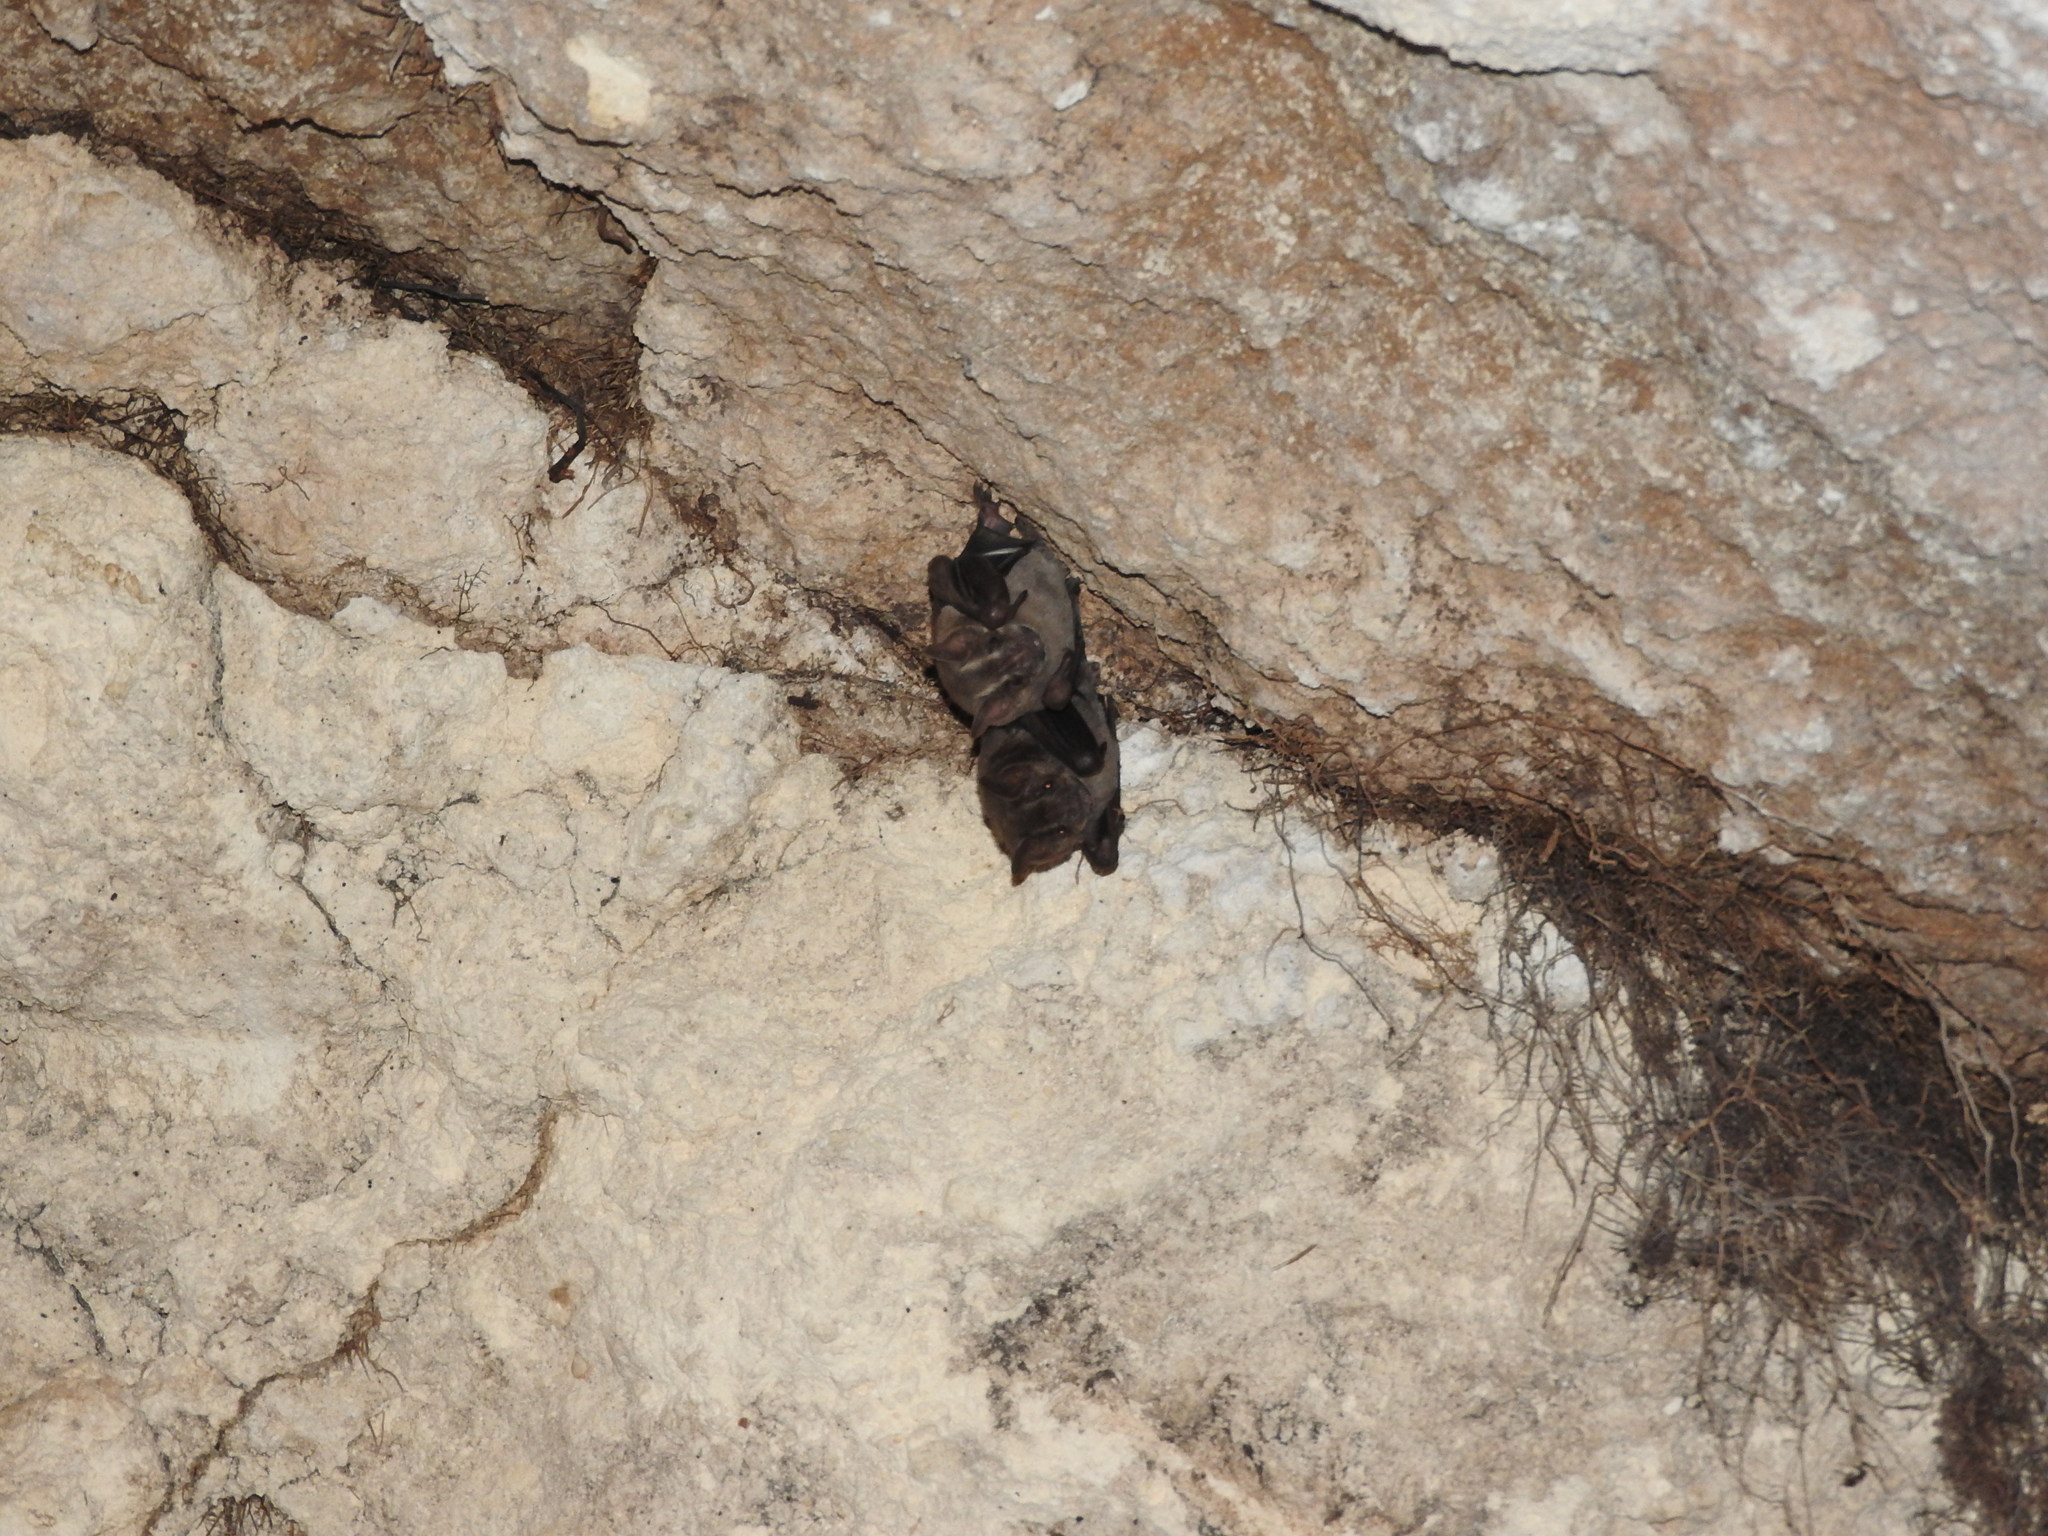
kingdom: Animalia
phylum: Chordata
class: Mammalia
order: Chiroptera
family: Phyllostomidae
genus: Artibeus
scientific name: Artibeus jamaicensis
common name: Jamaican fruit-eating bat
